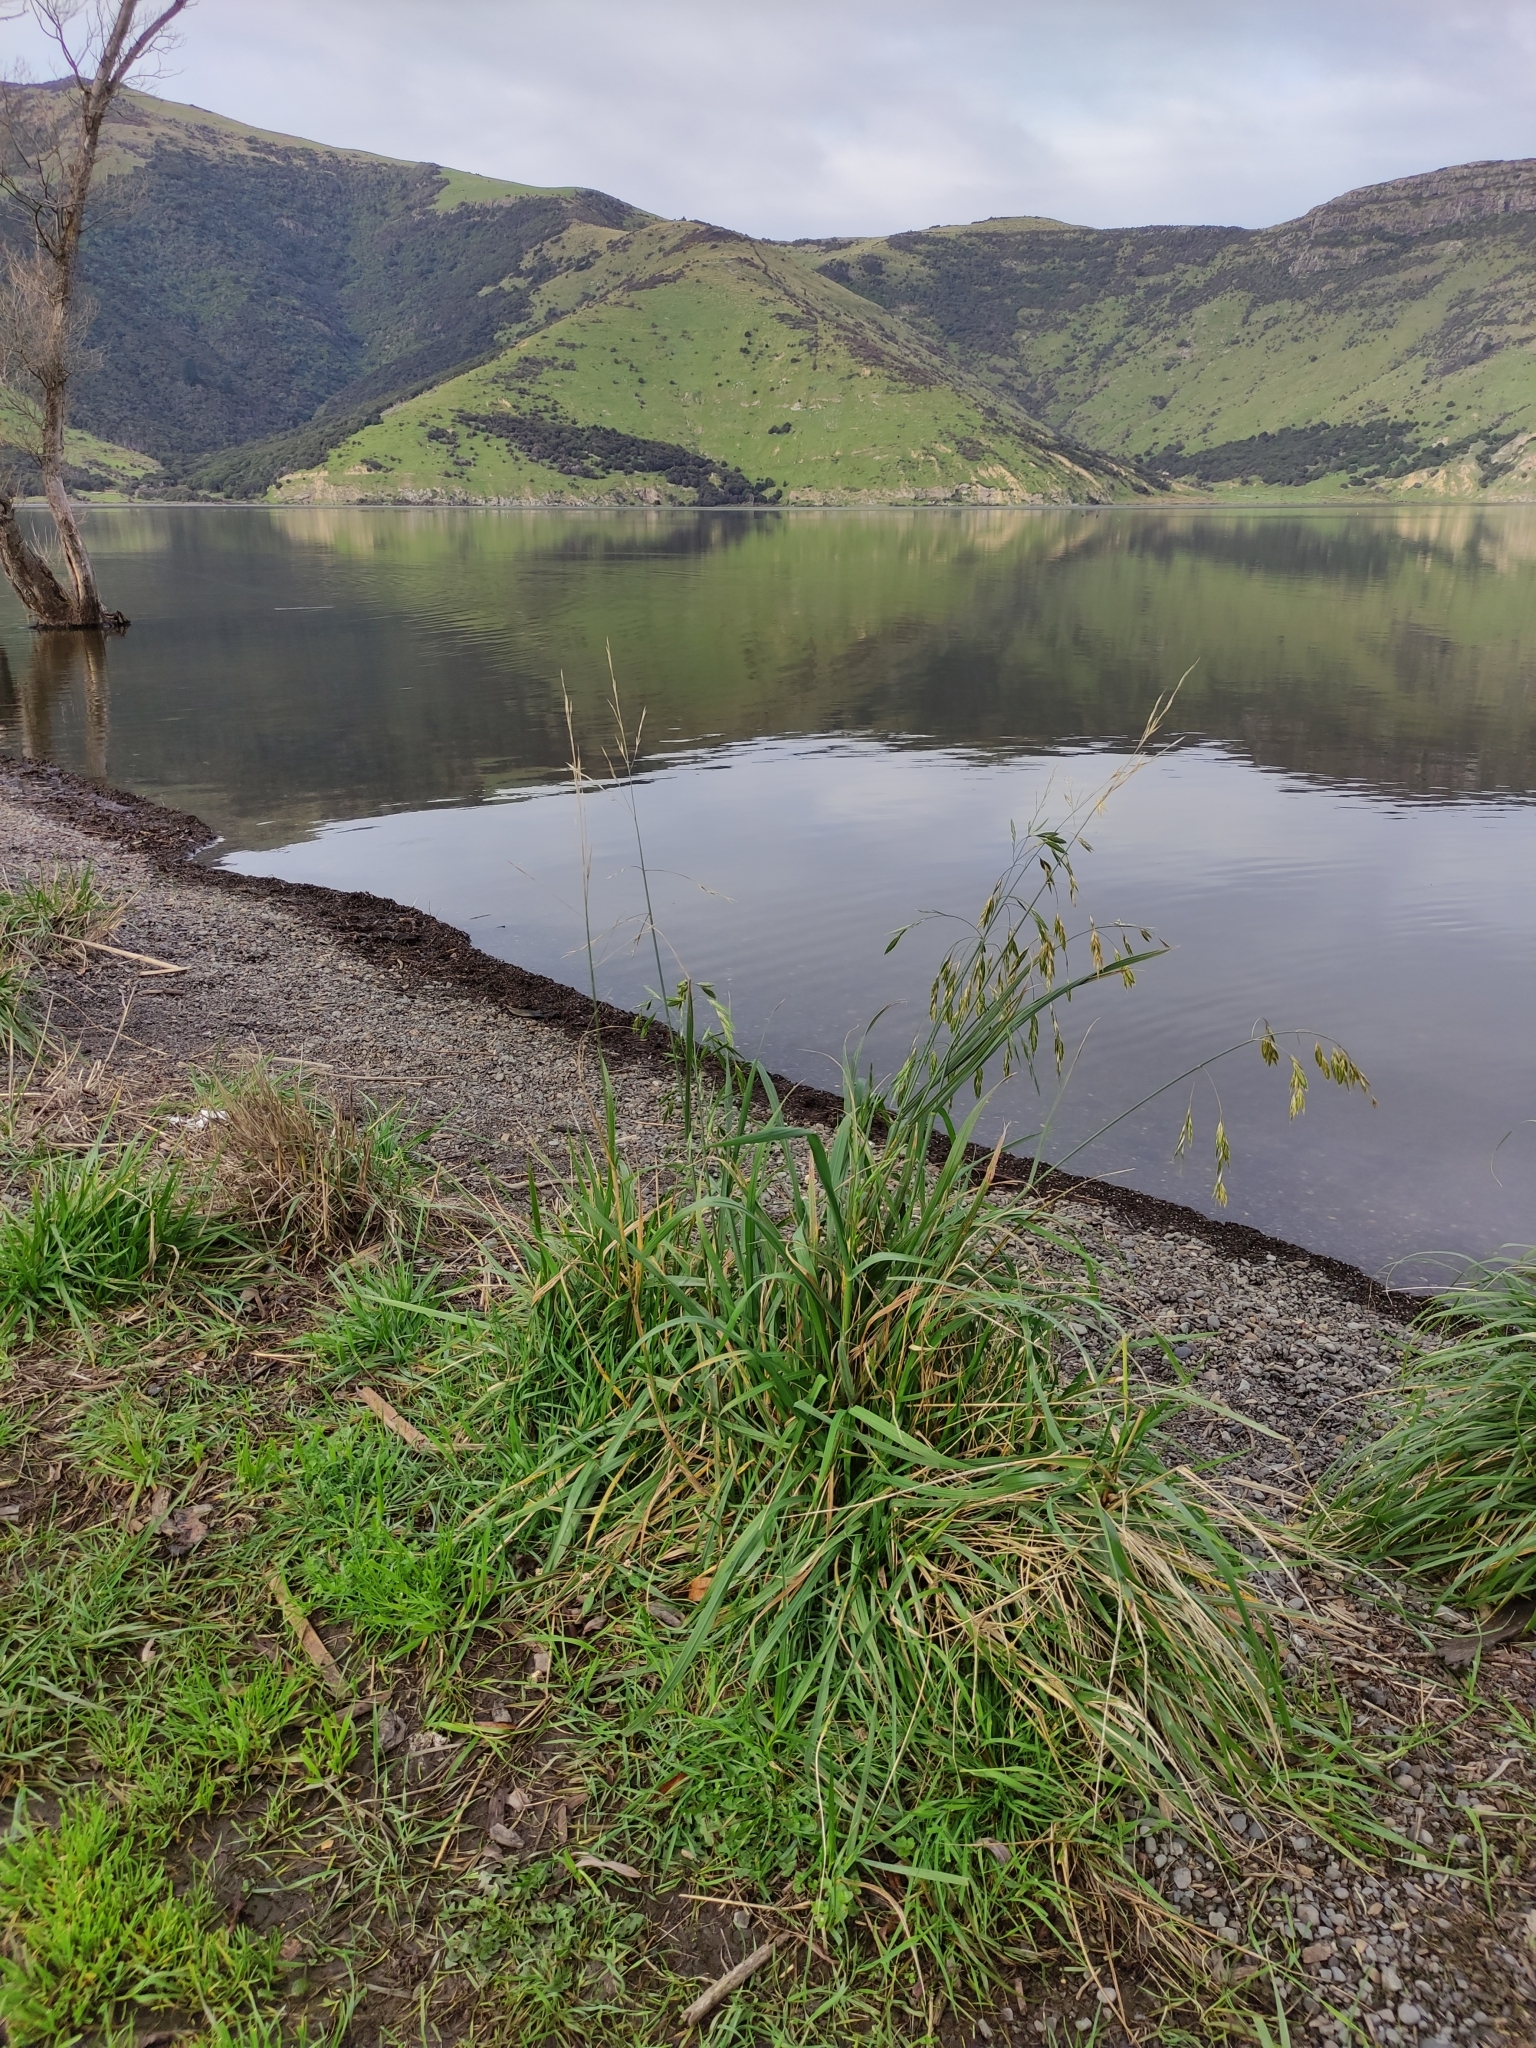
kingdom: Plantae
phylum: Tracheophyta
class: Liliopsida
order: Poales
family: Poaceae
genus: Bromus
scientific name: Bromus catharticus
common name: Rescuegrass
